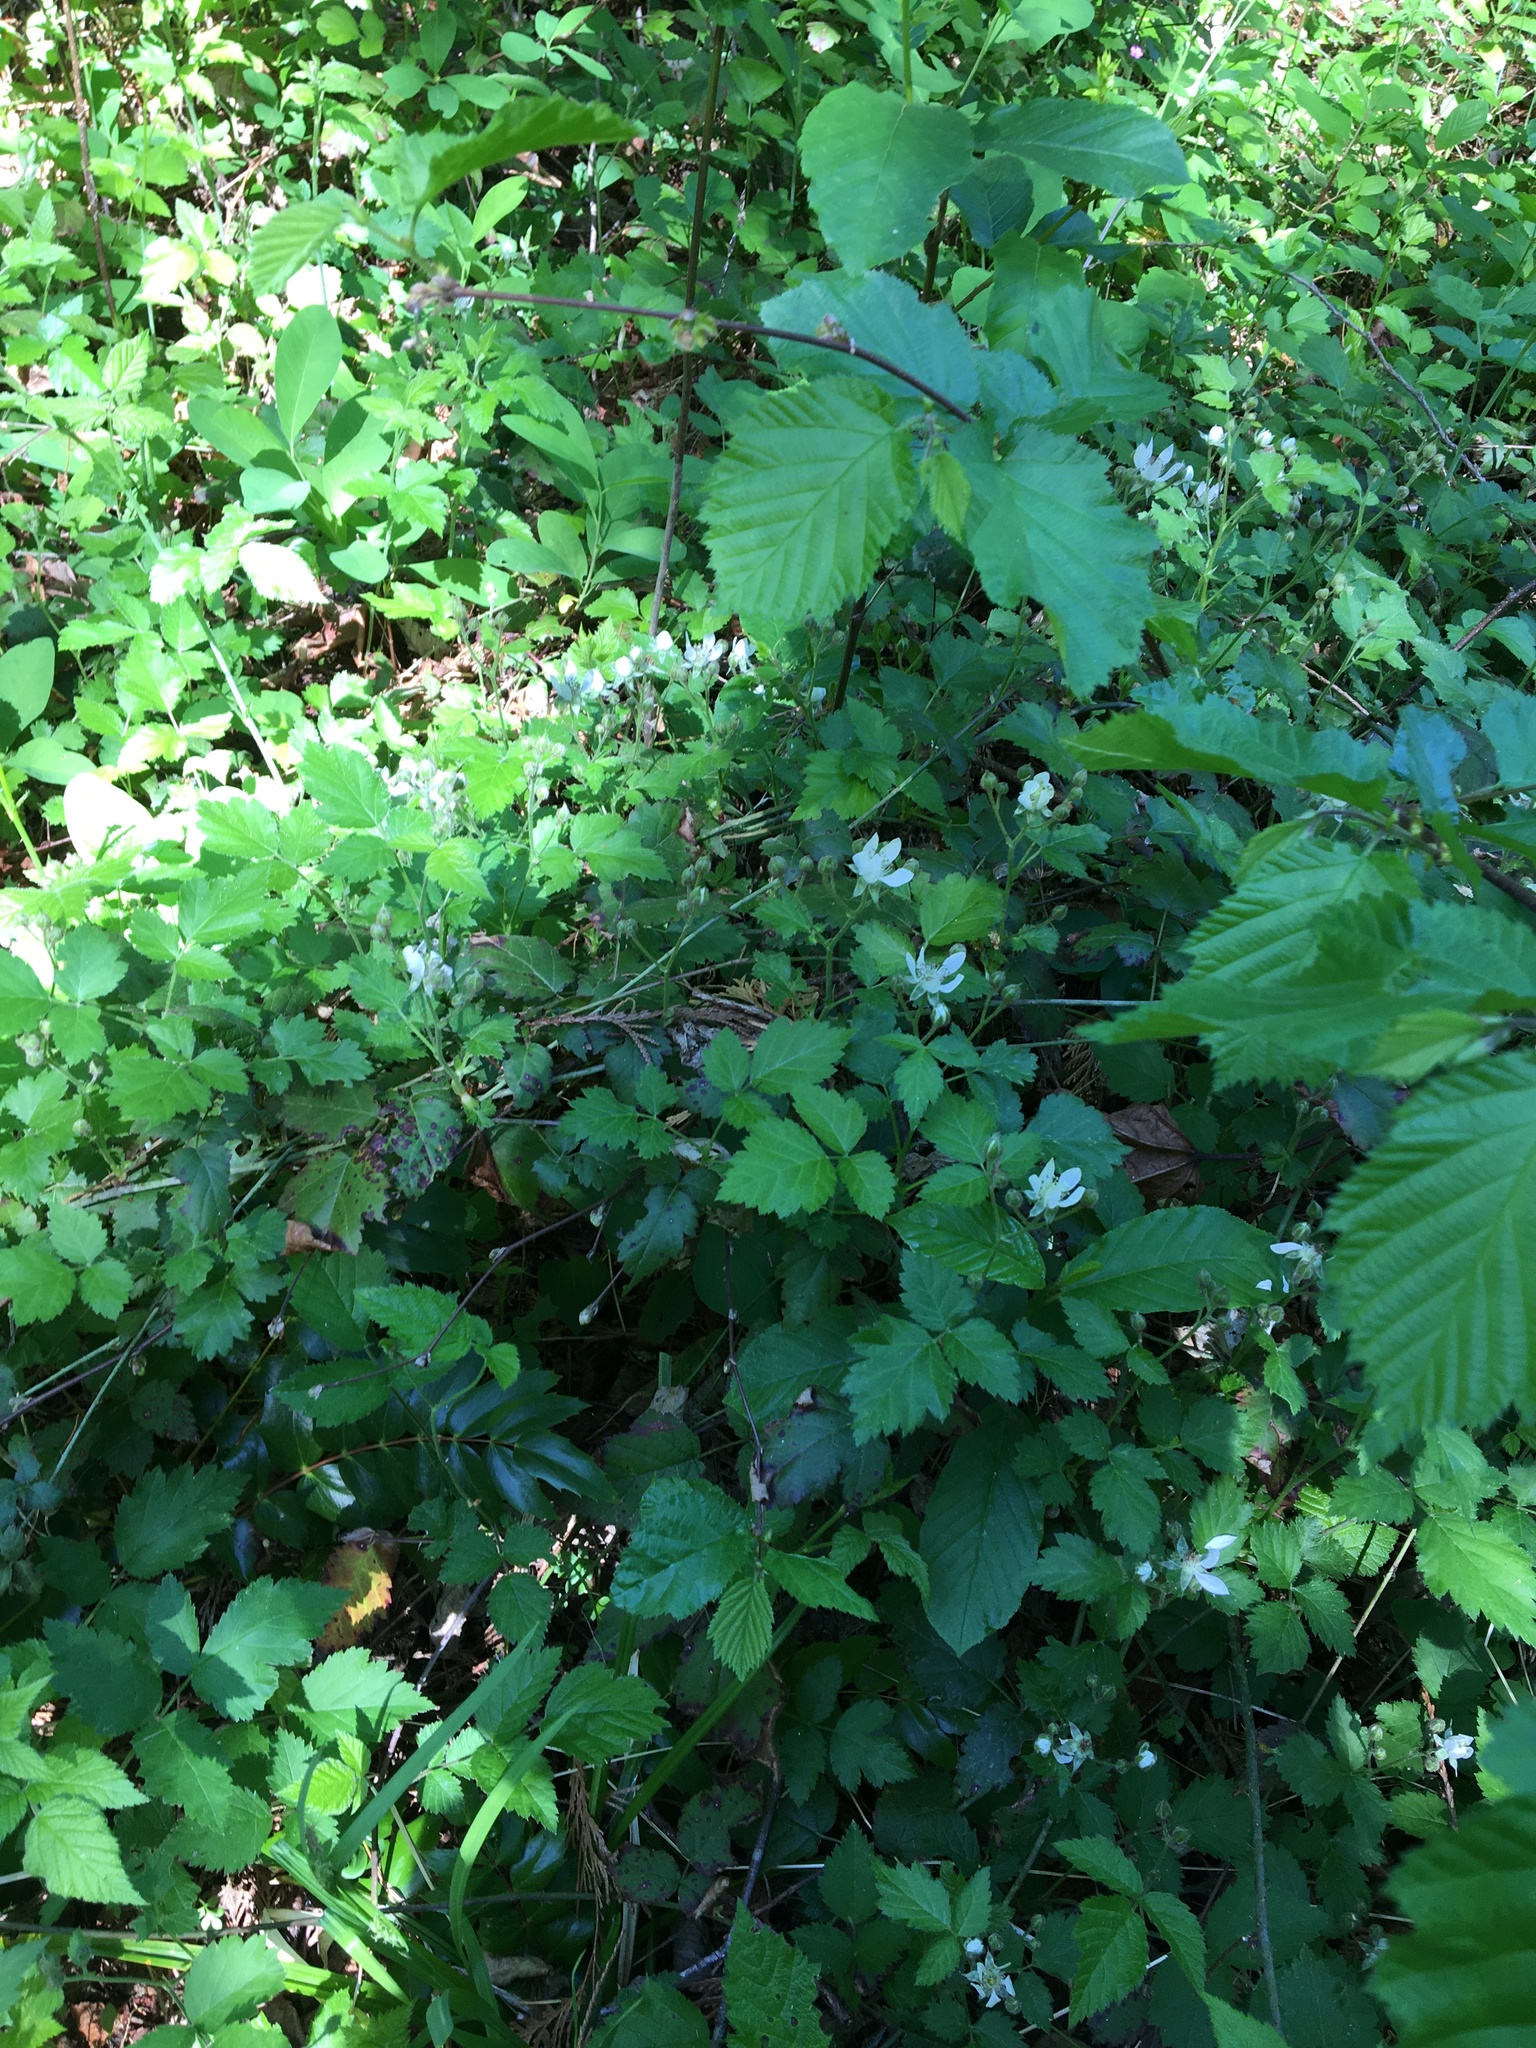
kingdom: Plantae
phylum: Tracheophyta
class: Magnoliopsida
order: Rosales
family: Rosaceae
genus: Rubus
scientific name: Rubus ursinus
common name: Pacific blackberry
